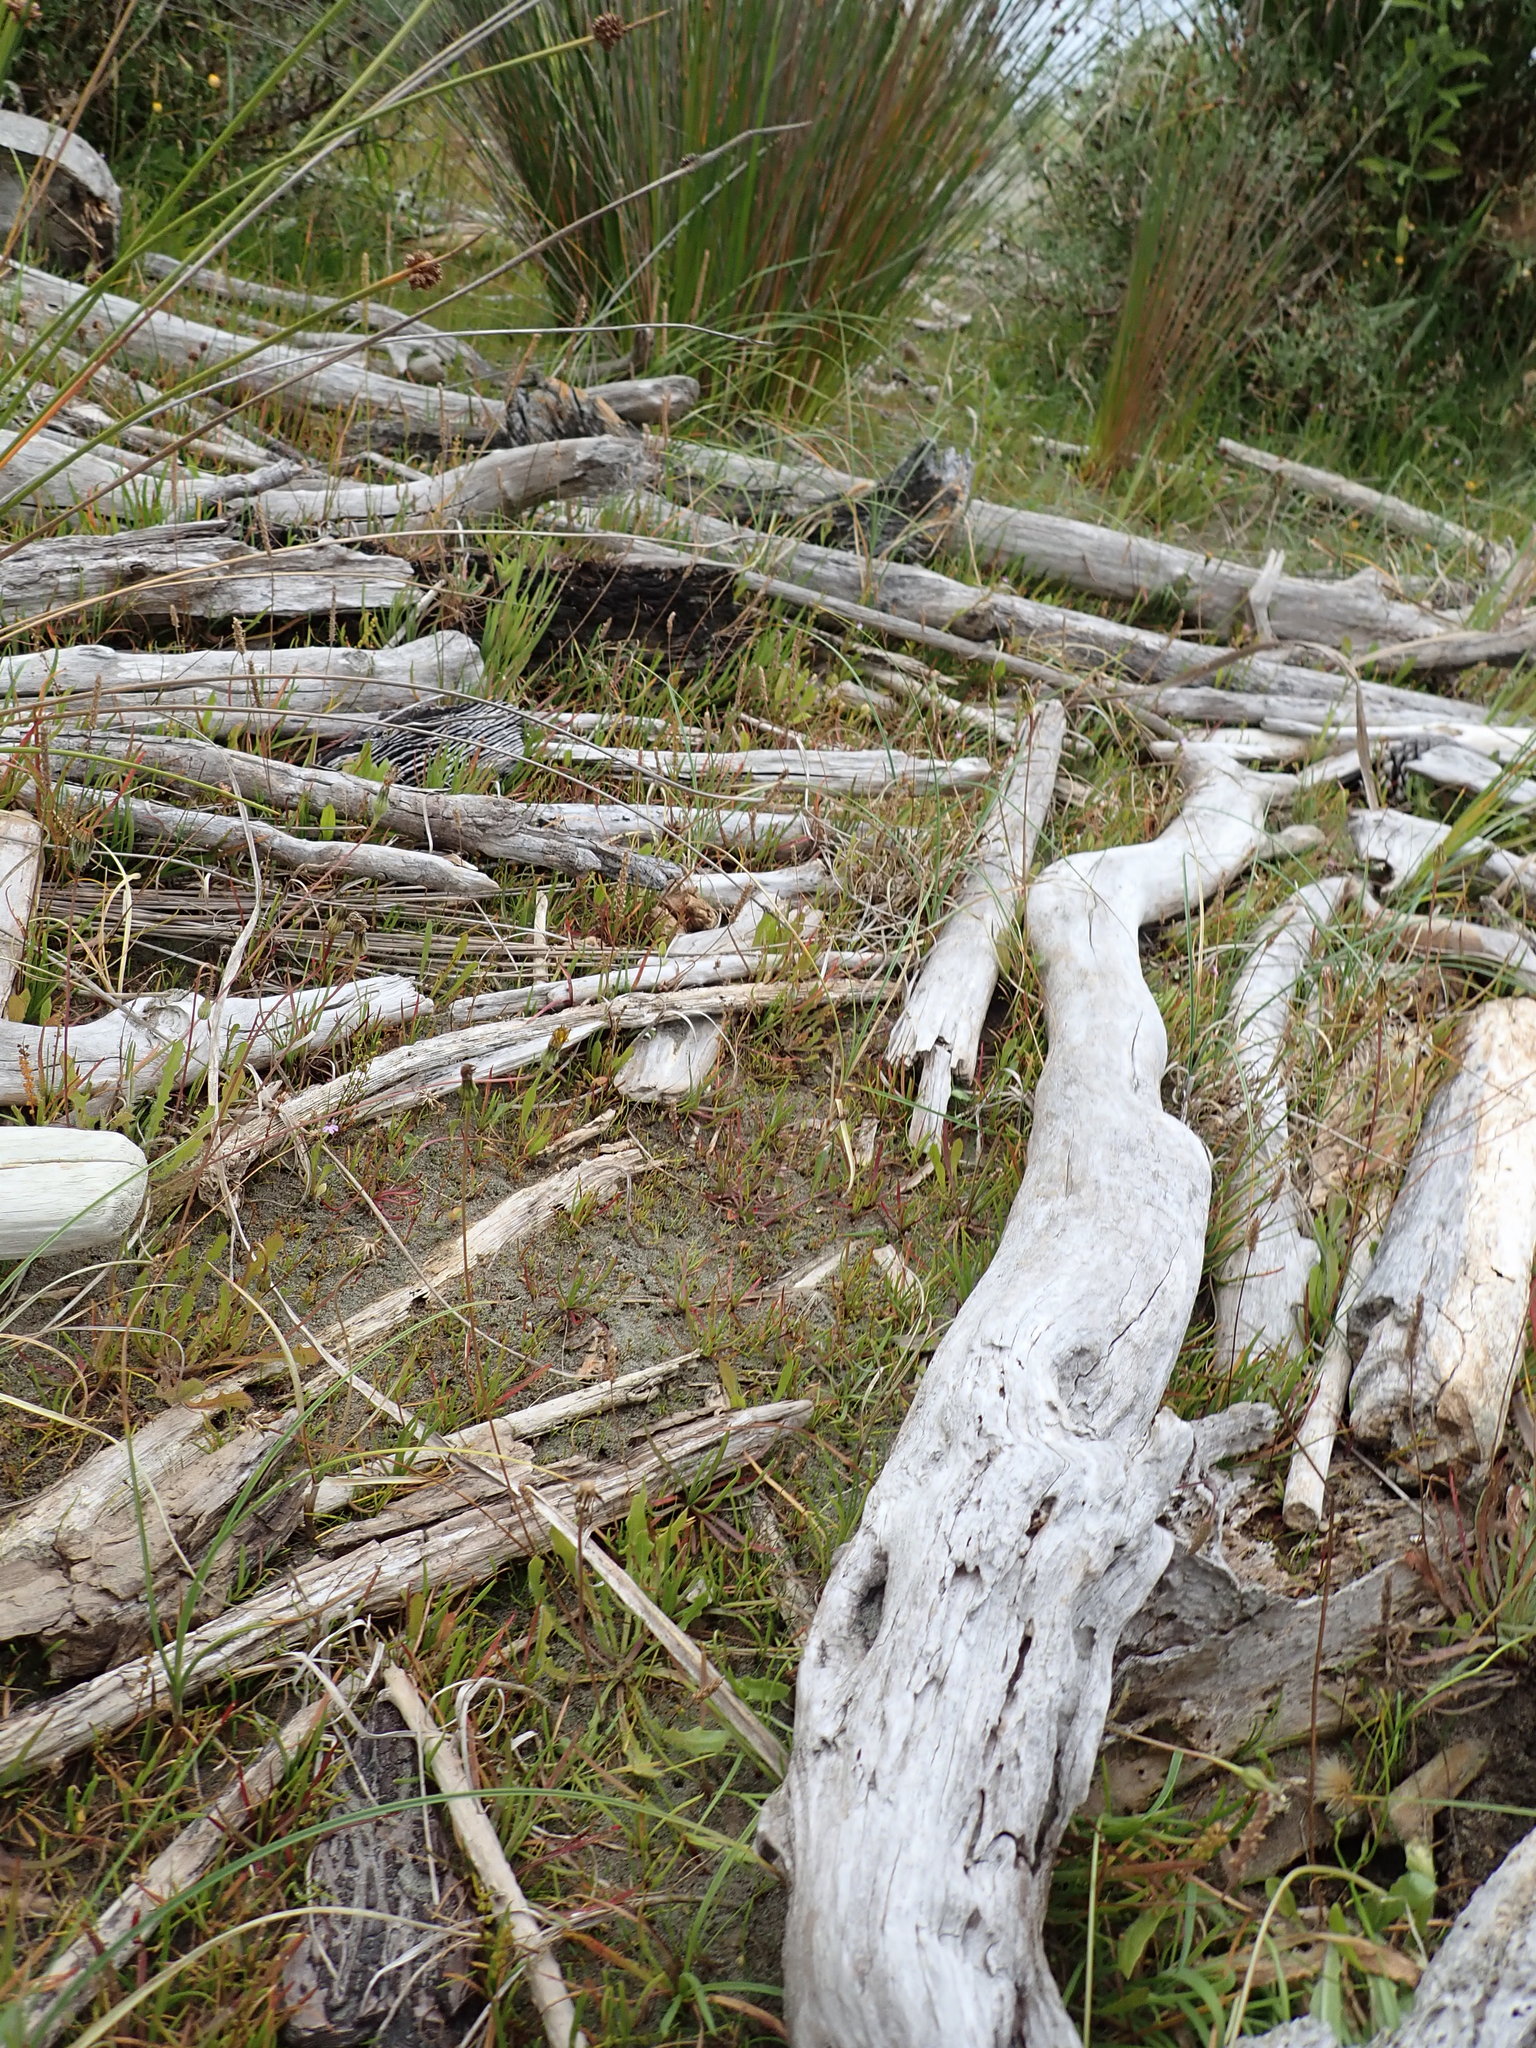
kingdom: Plantae
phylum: Tracheophyta
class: Magnoliopsida
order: Lamiales
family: Plantaginaceae
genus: Plantago
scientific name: Plantago coronopus
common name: Buck's-horn plantain
